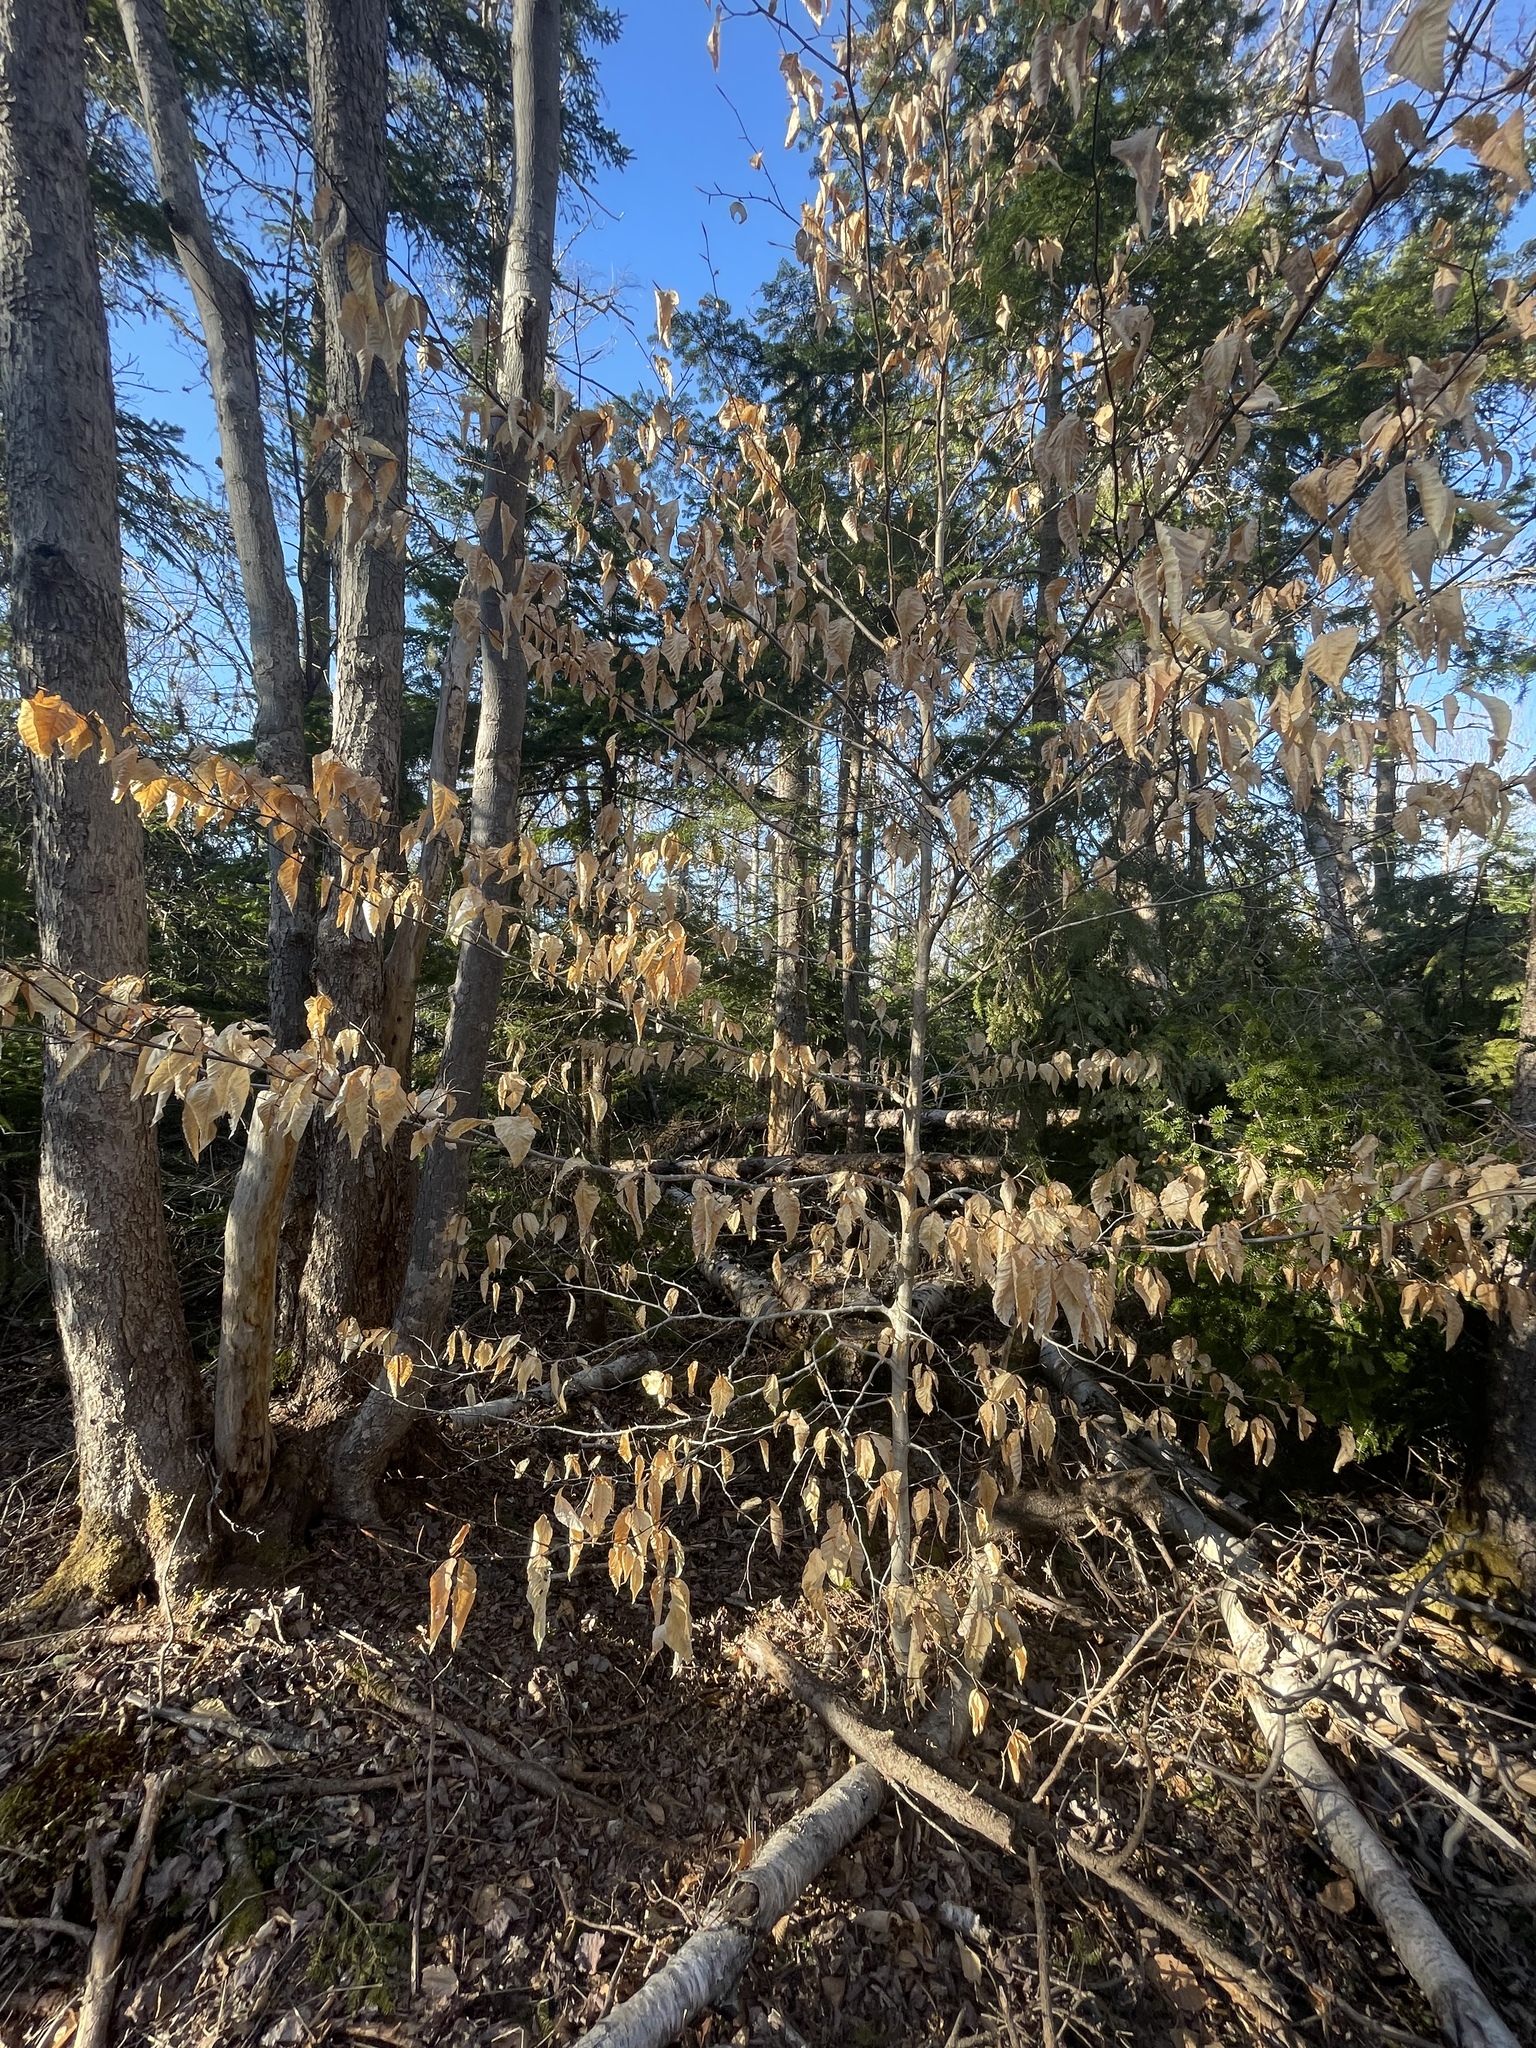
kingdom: Plantae
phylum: Tracheophyta
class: Magnoliopsida
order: Fagales
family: Fagaceae
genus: Fagus
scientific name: Fagus grandifolia
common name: American beech
